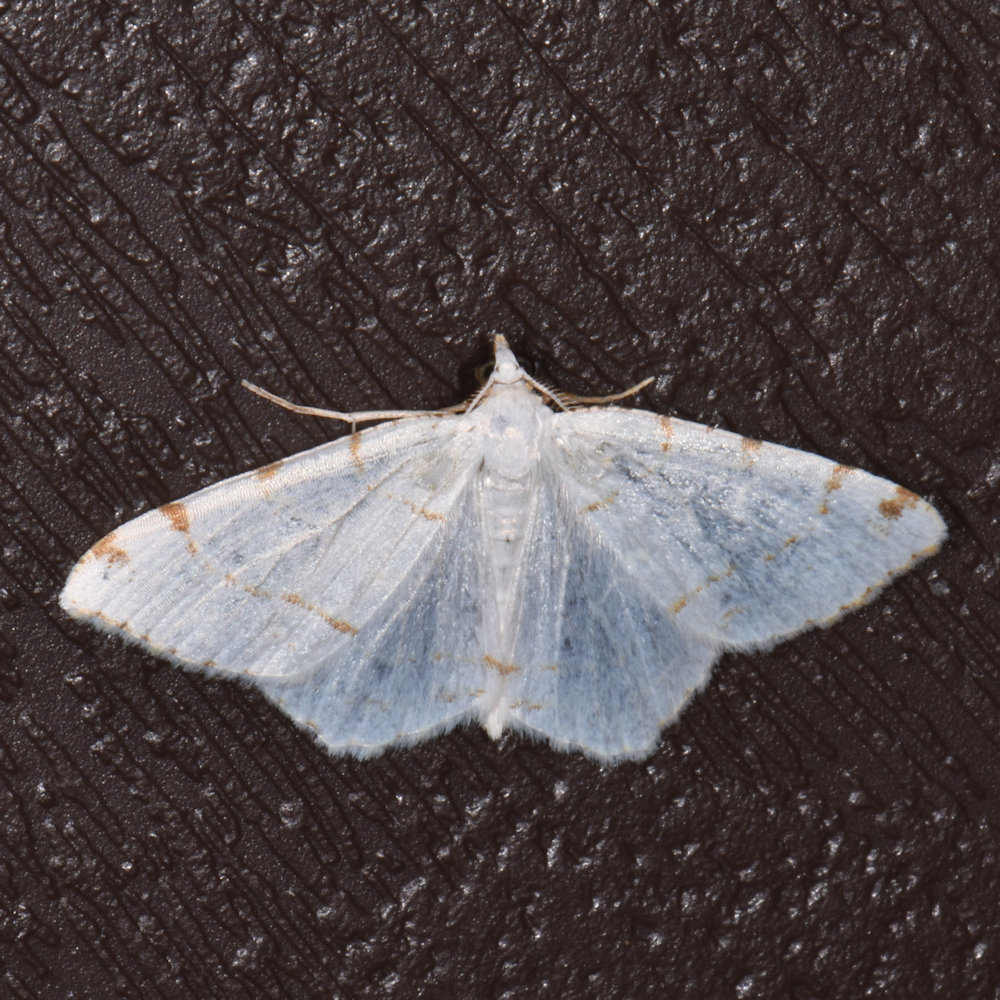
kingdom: Animalia
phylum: Arthropoda
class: Insecta
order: Lepidoptera
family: Geometridae
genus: Macaria
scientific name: Macaria pustularia
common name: Lesser maple spanworm moth
